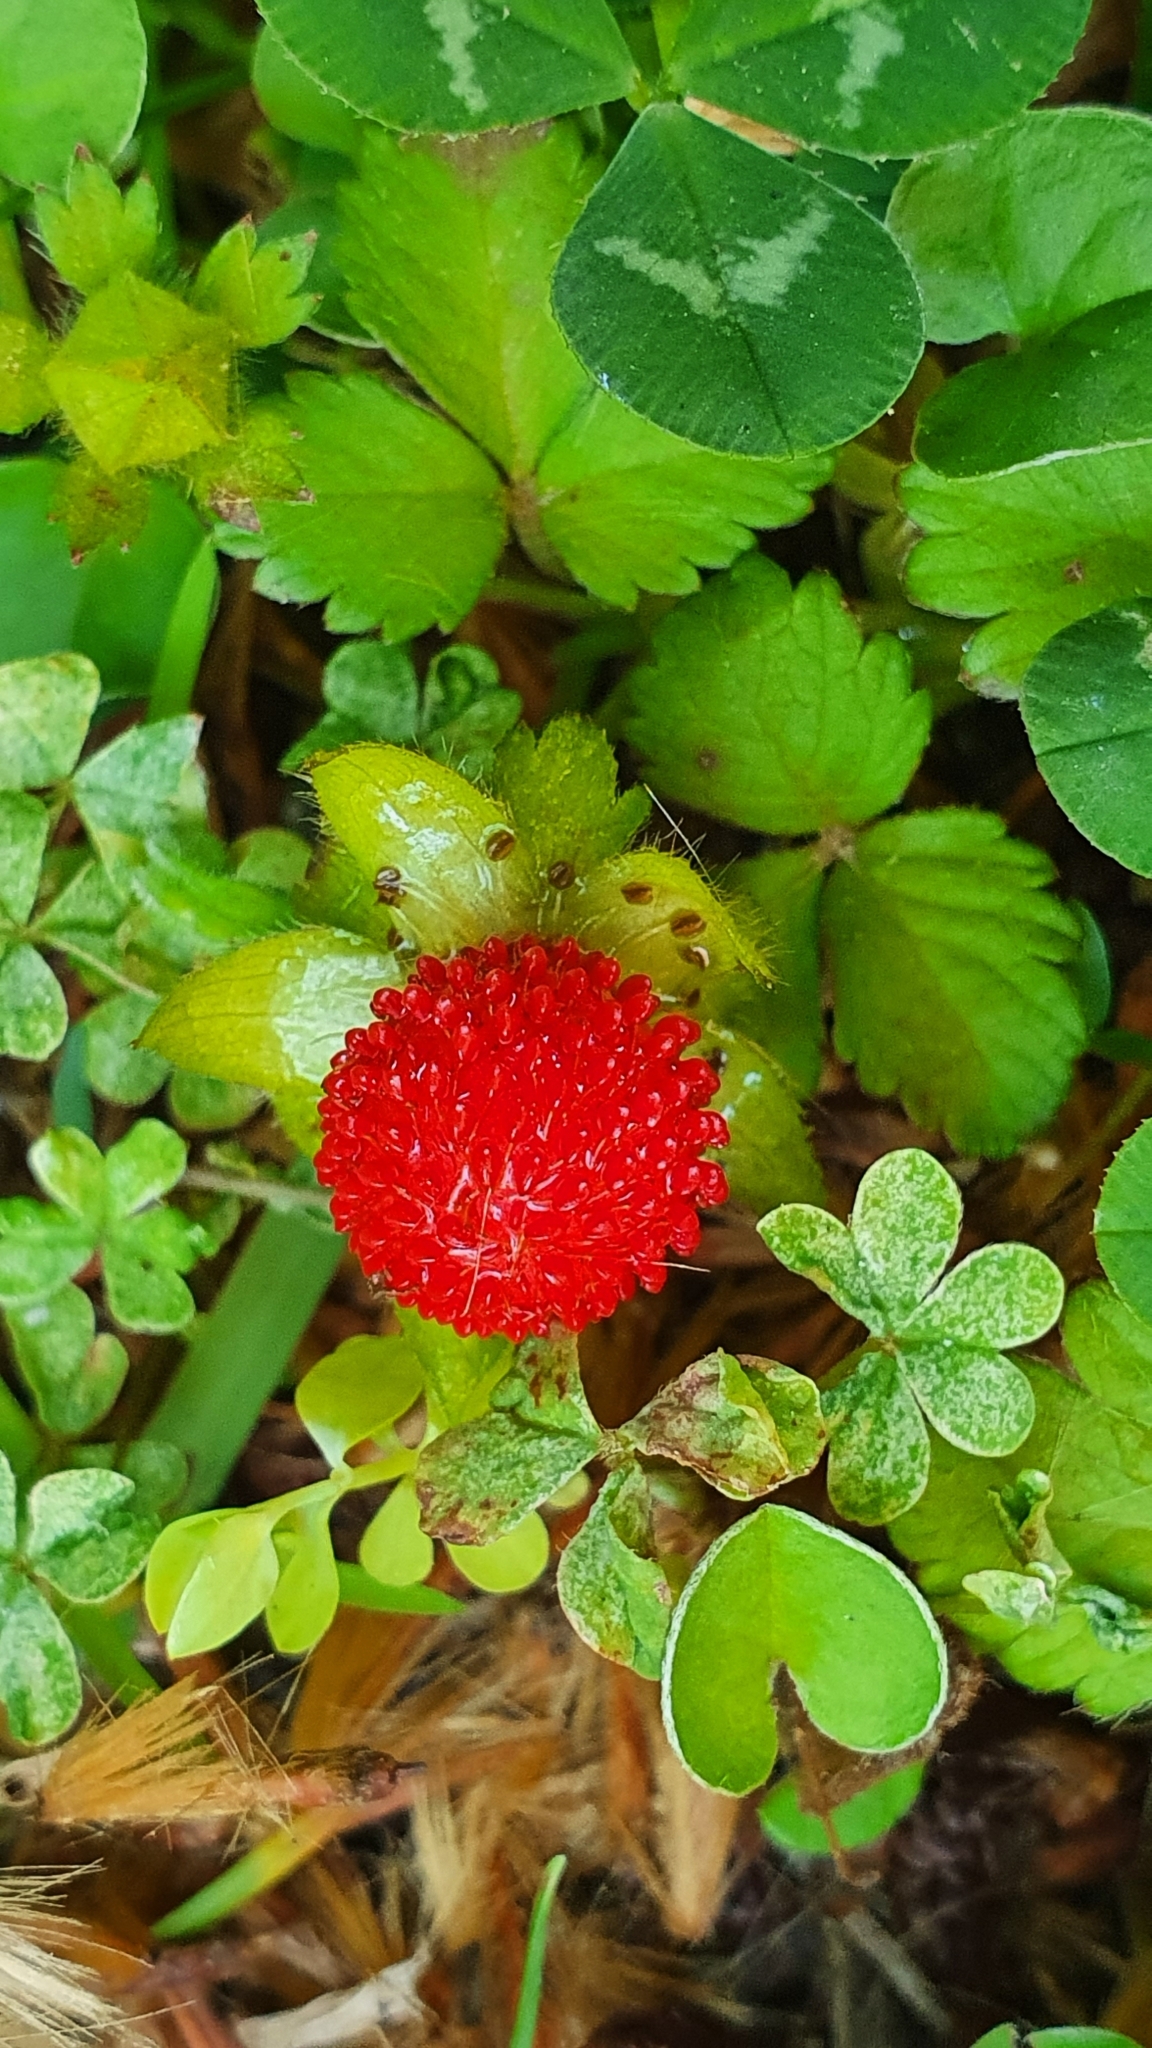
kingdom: Plantae
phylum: Tracheophyta
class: Magnoliopsida
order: Rosales
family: Rosaceae
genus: Potentilla
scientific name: Potentilla indica
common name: Yellow-flowered strawberry
